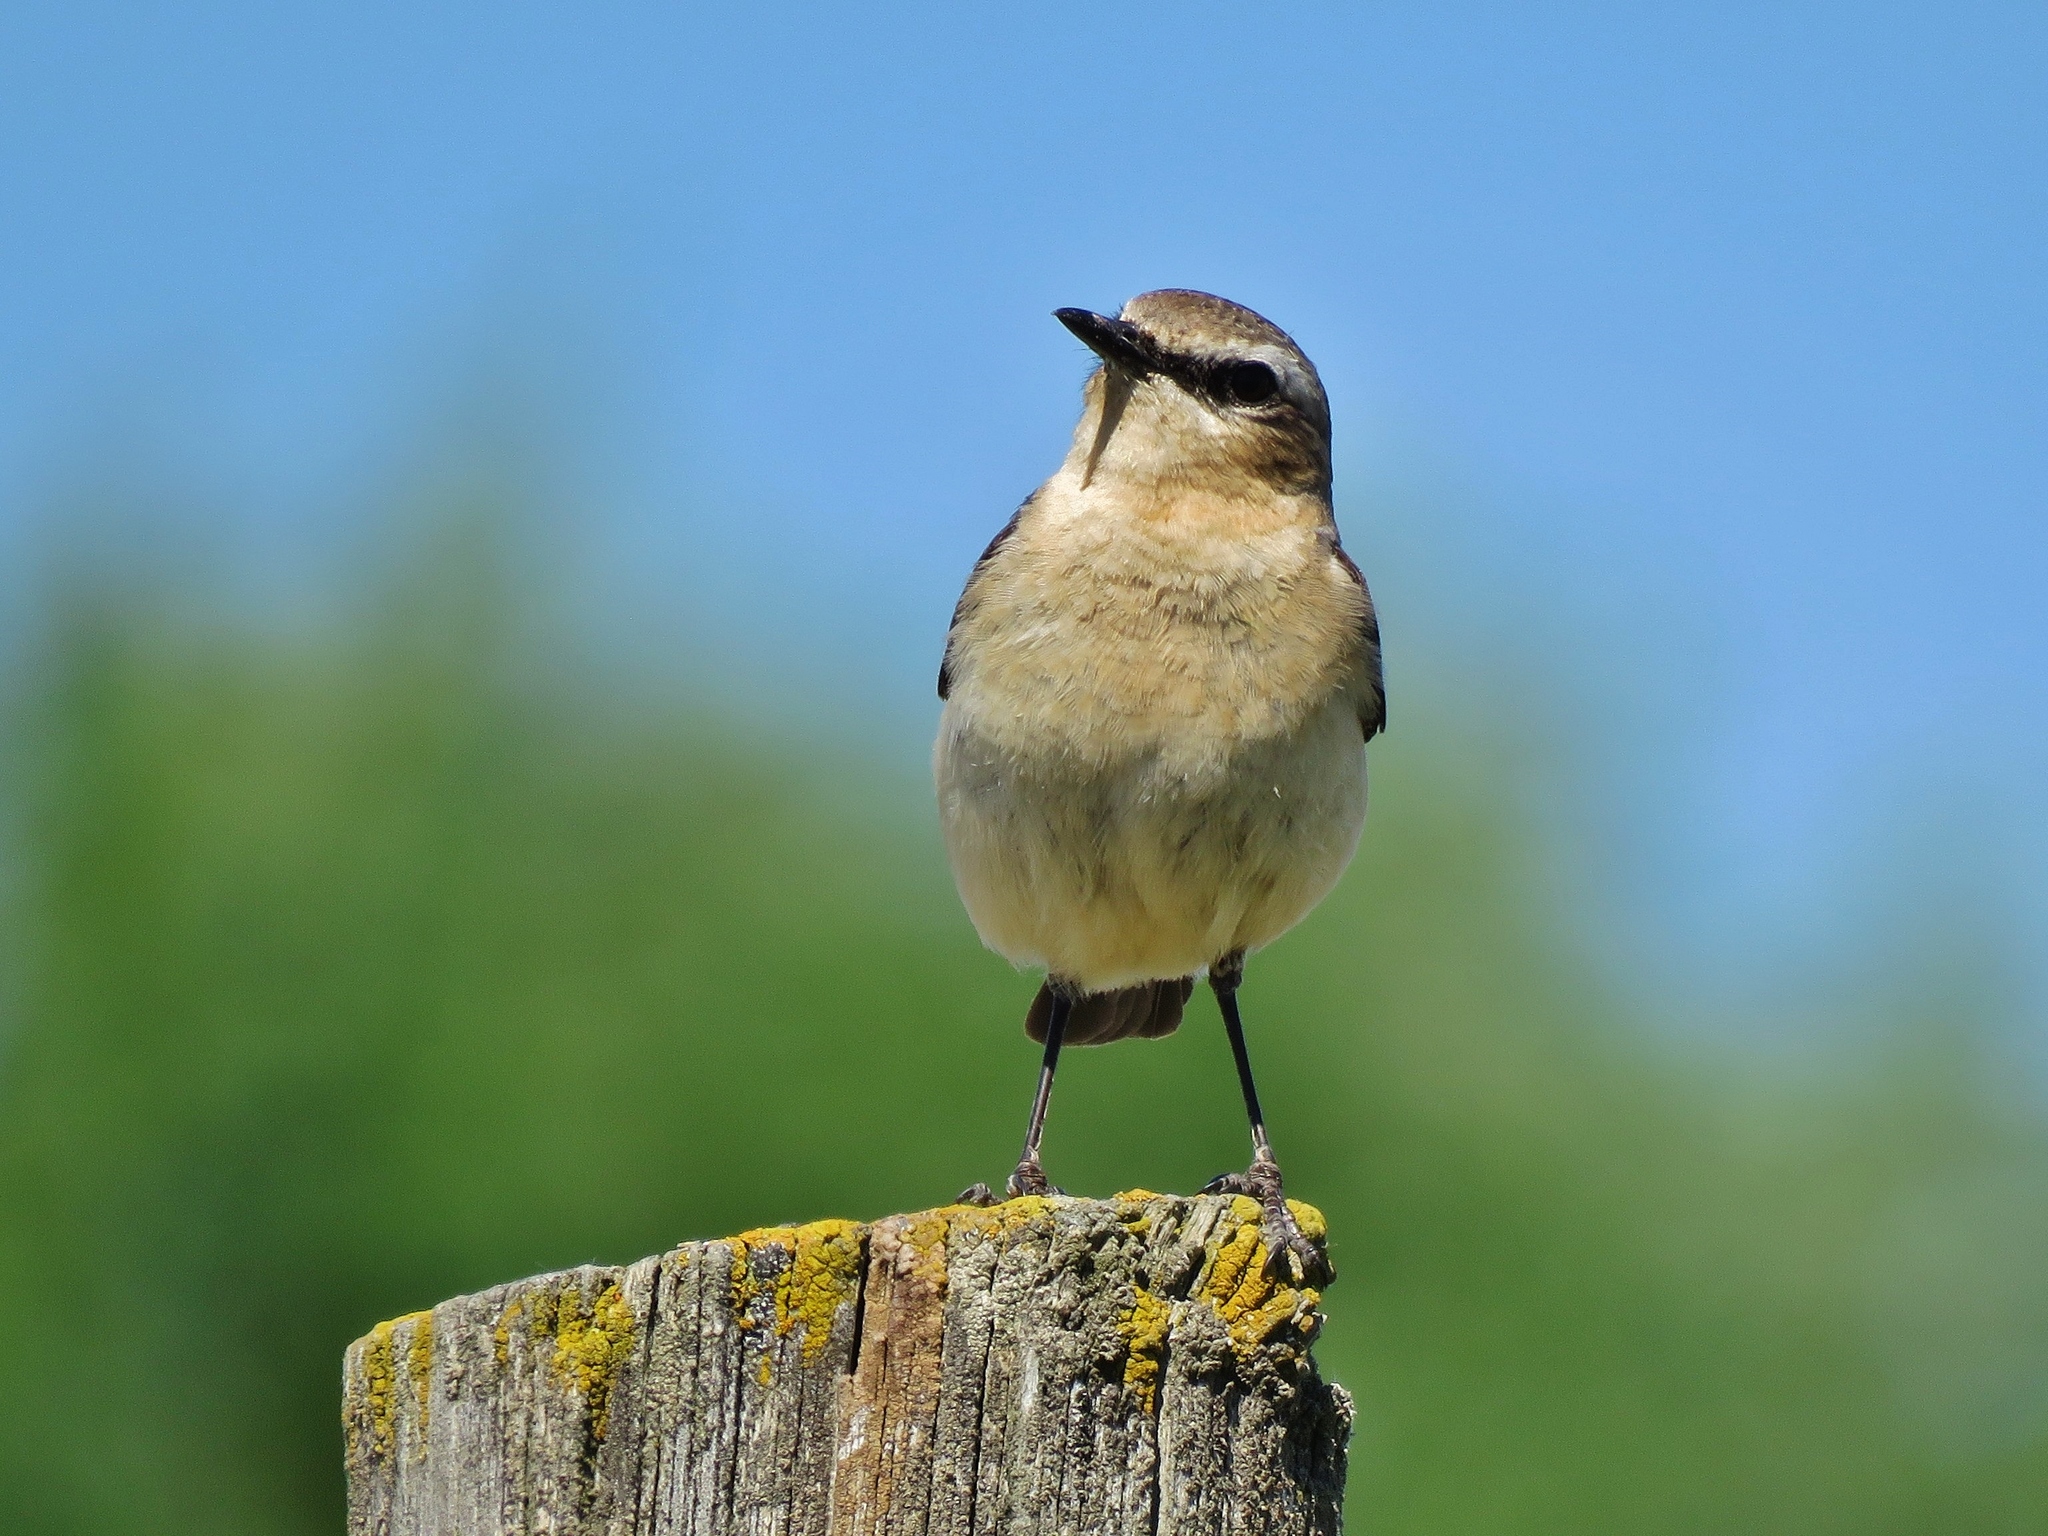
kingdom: Animalia
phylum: Chordata
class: Aves
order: Passeriformes
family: Muscicapidae
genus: Oenanthe
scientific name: Oenanthe oenanthe
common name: Northern wheatear
